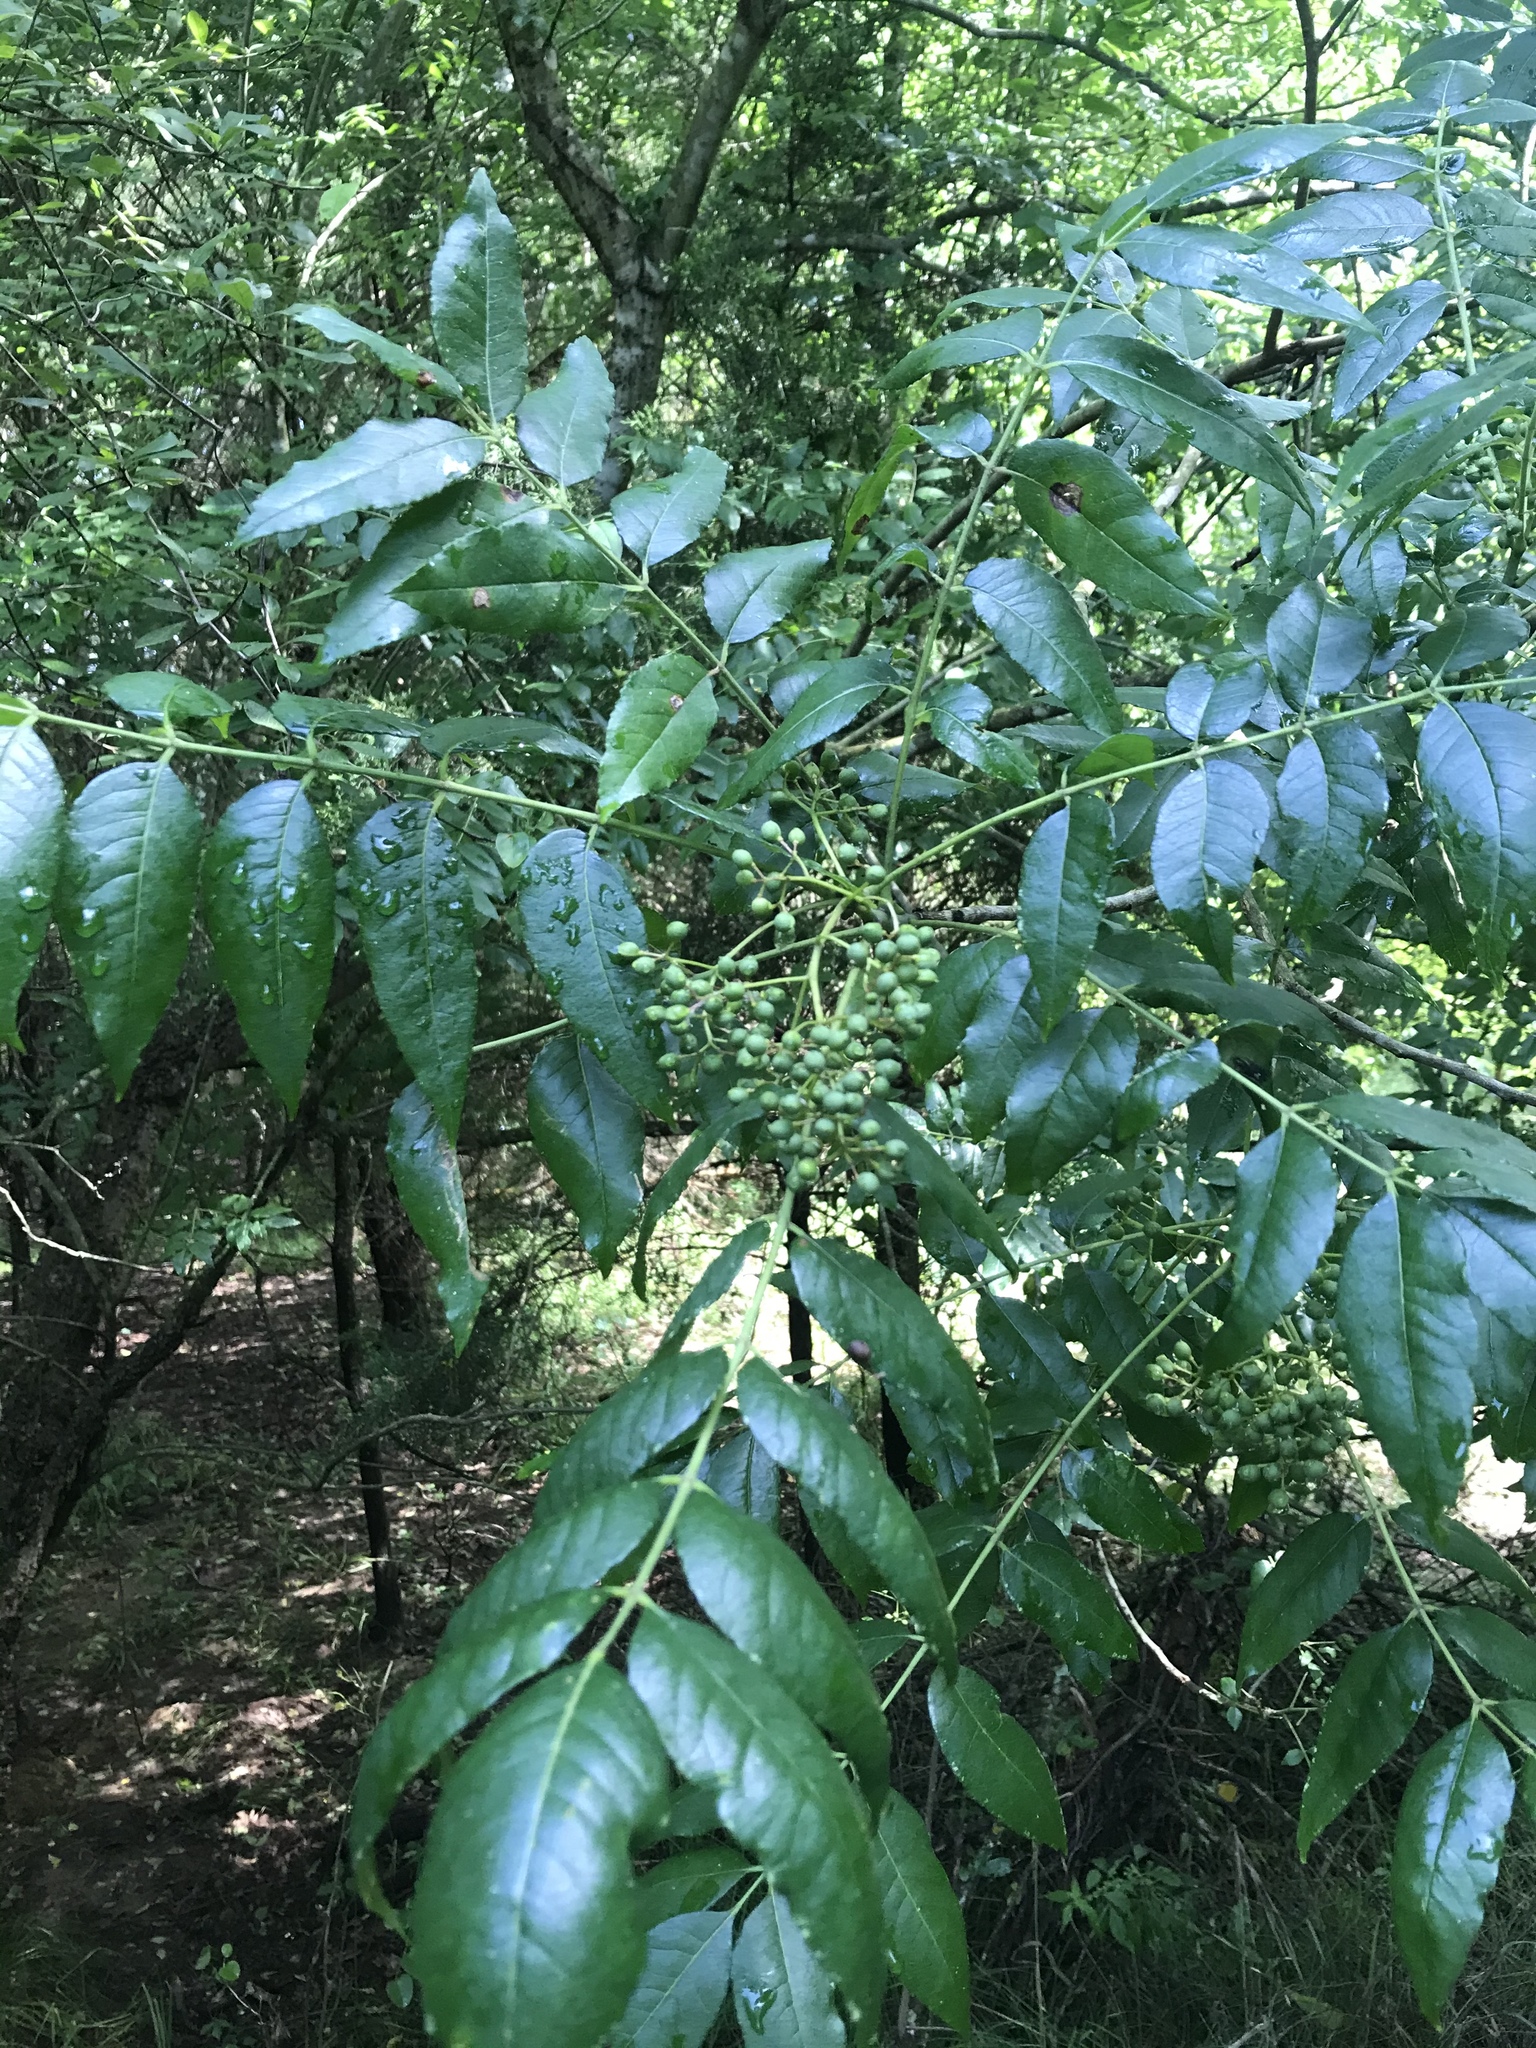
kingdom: Plantae
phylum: Tracheophyta
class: Magnoliopsida
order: Sapindales
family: Rutaceae
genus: Zanthoxylum
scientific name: Zanthoxylum clava-herculis
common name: Hercules'-club
